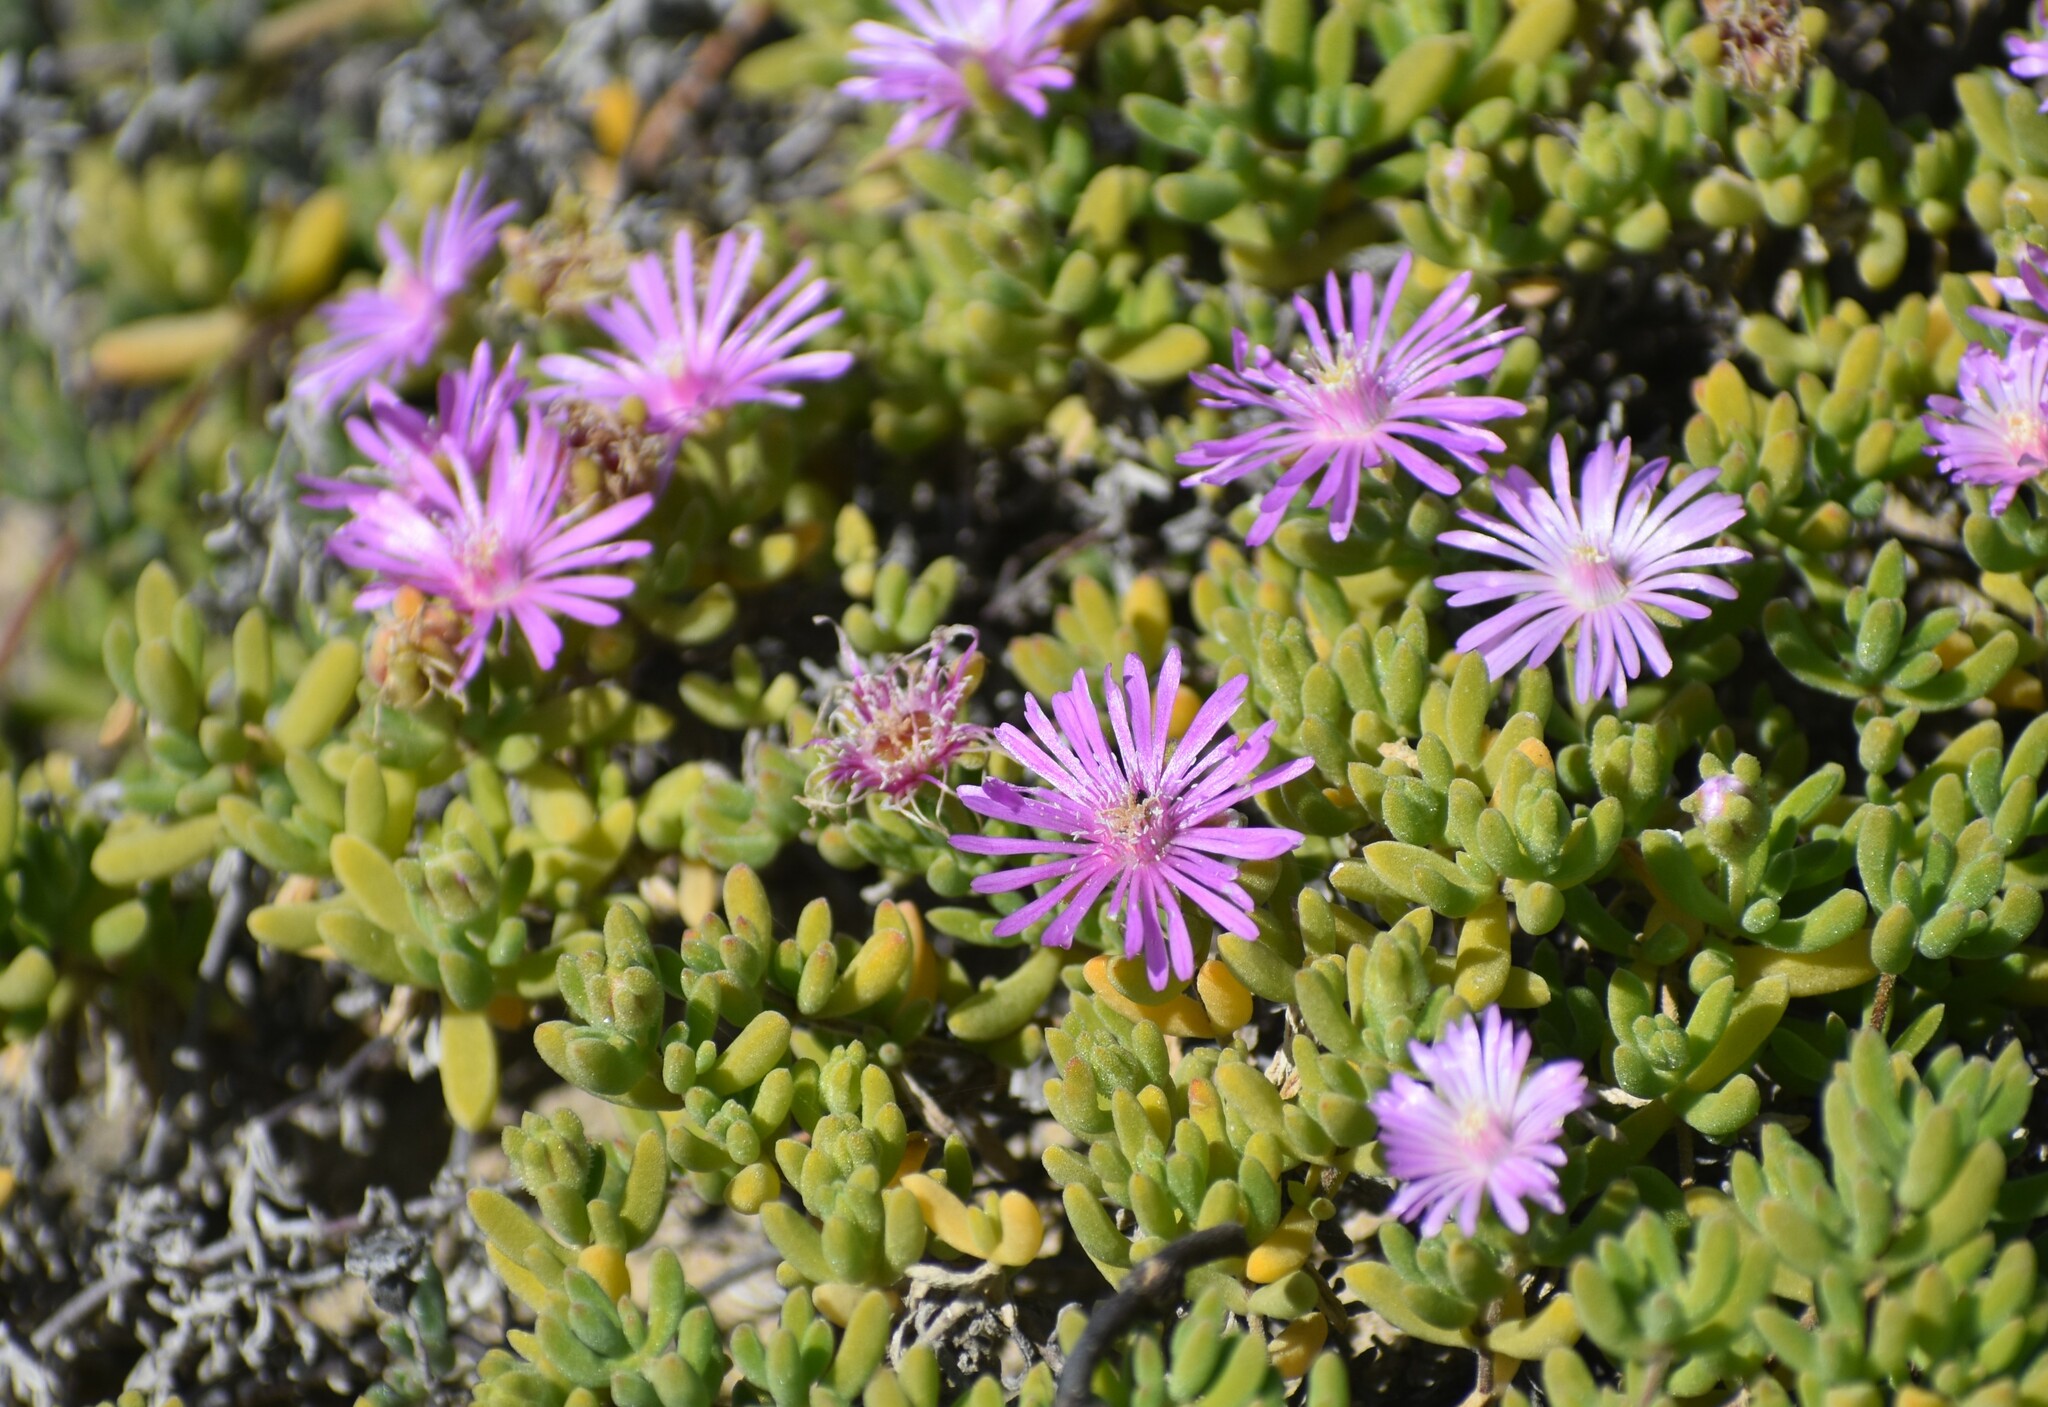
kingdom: Plantae
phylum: Tracheophyta
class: Magnoliopsida
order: Caryophyllales
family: Aizoaceae
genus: Drosanthemum
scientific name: Drosanthemum candens
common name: Rodondo-creeper
